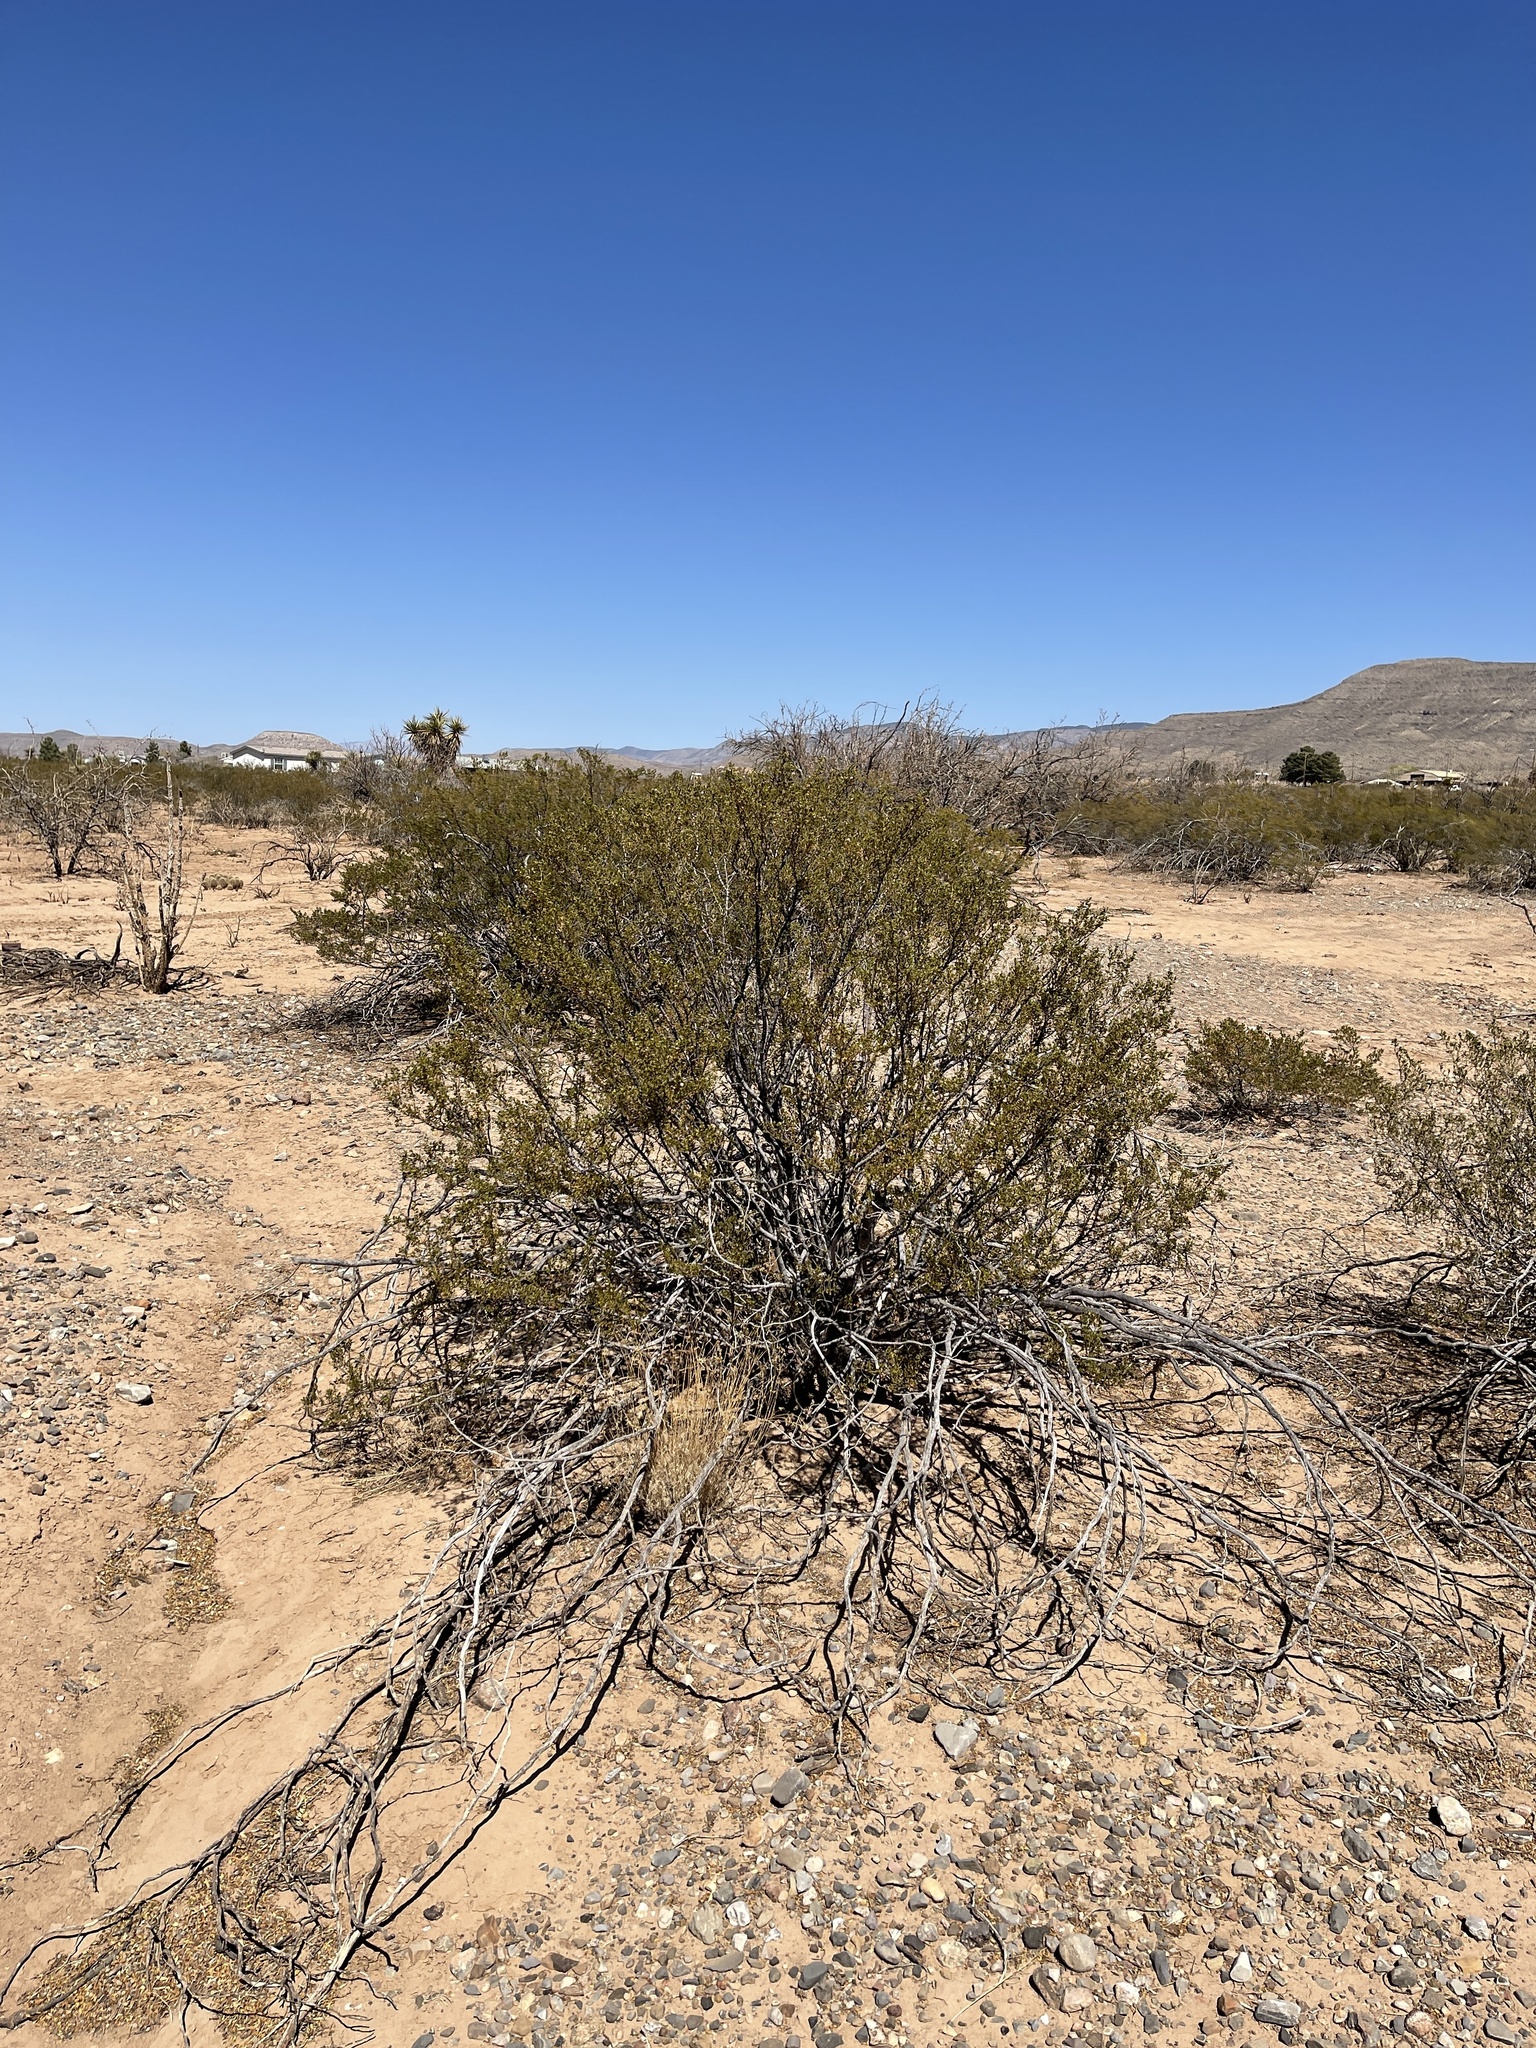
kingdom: Plantae
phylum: Tracheophyta
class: Magnoliopsida
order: Zygophyllales
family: Zygophyllaceae
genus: Larrea
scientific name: Larrea tridentata
